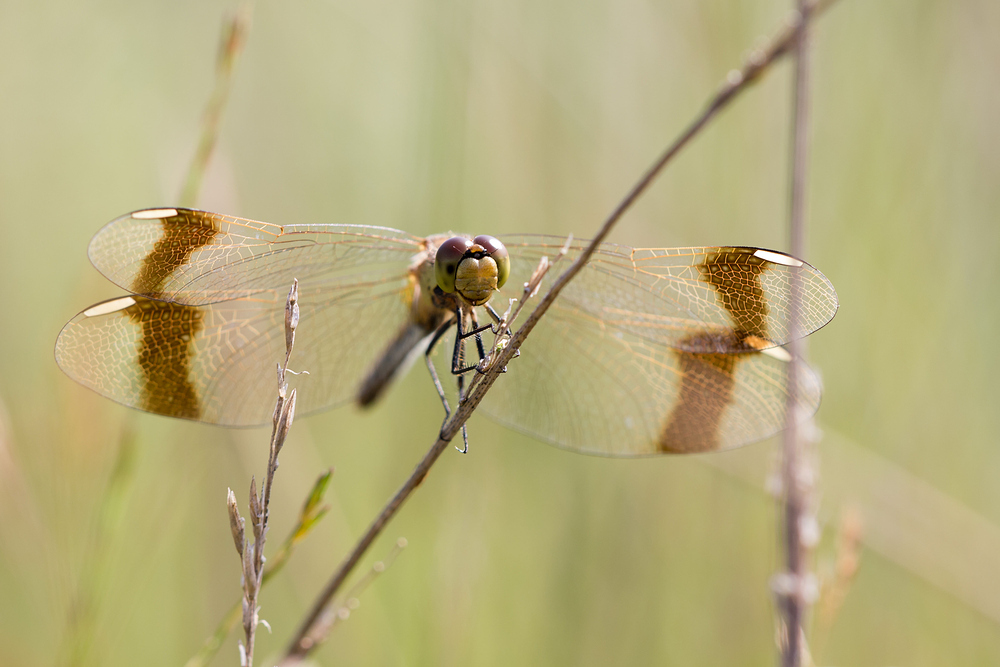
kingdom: Animalia
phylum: Arthropoda
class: Insecta
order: Odonata
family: Libellulidae
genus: Sympetrum
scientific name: Sympetrum pedemontanum
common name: Banded darter
